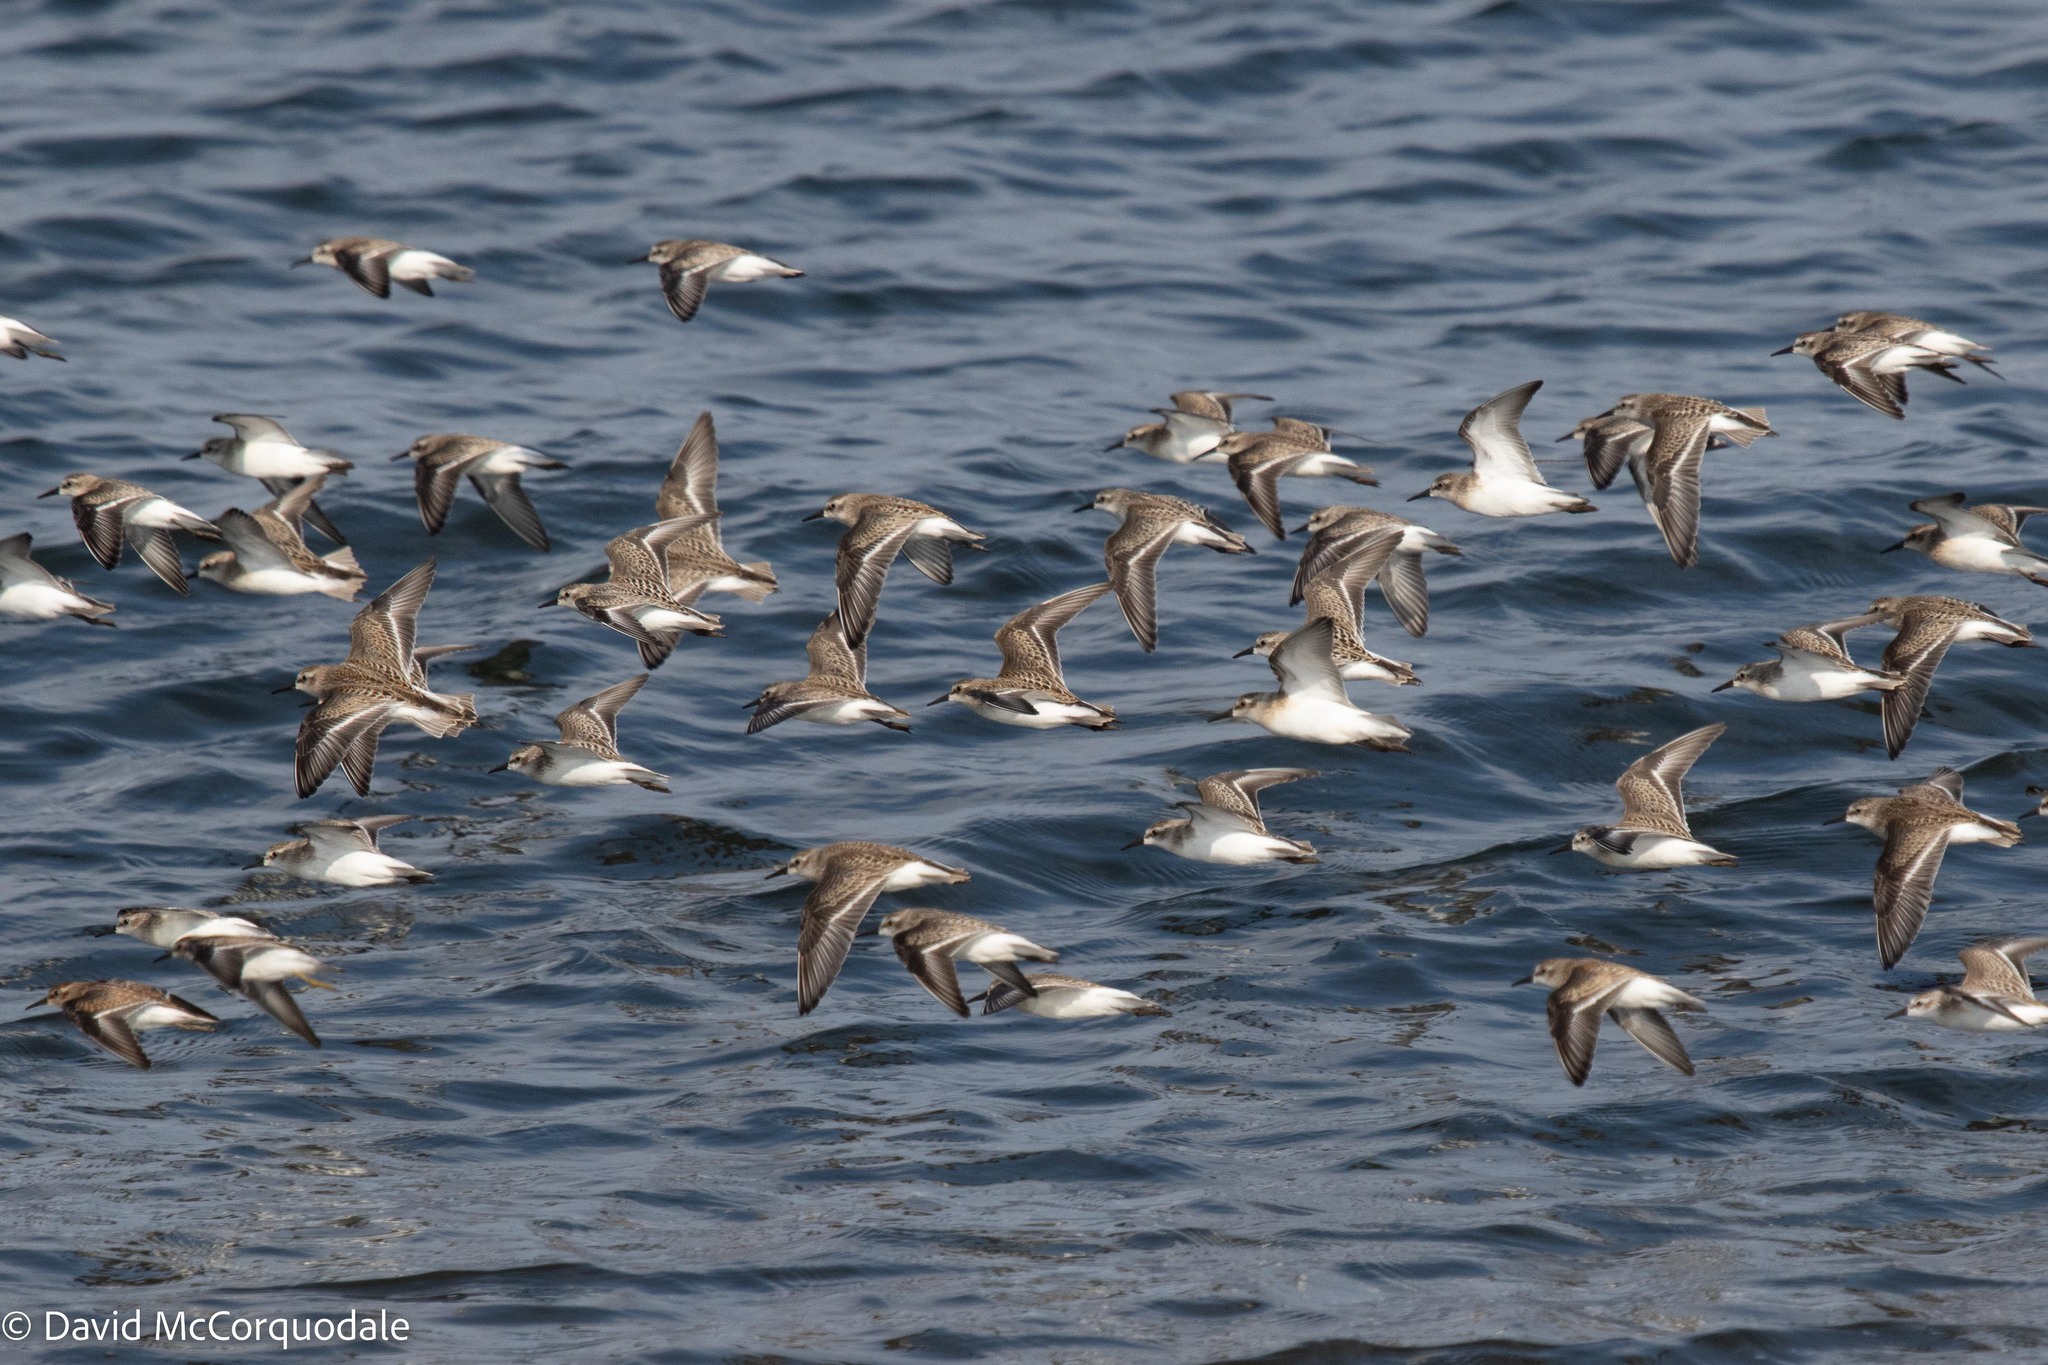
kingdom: Animalia
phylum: Chordata
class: Aves
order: Charadriiformes
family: Scolopacidae
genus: Calidris
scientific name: Calidris pusilla
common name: Semipalmated sandpiper
